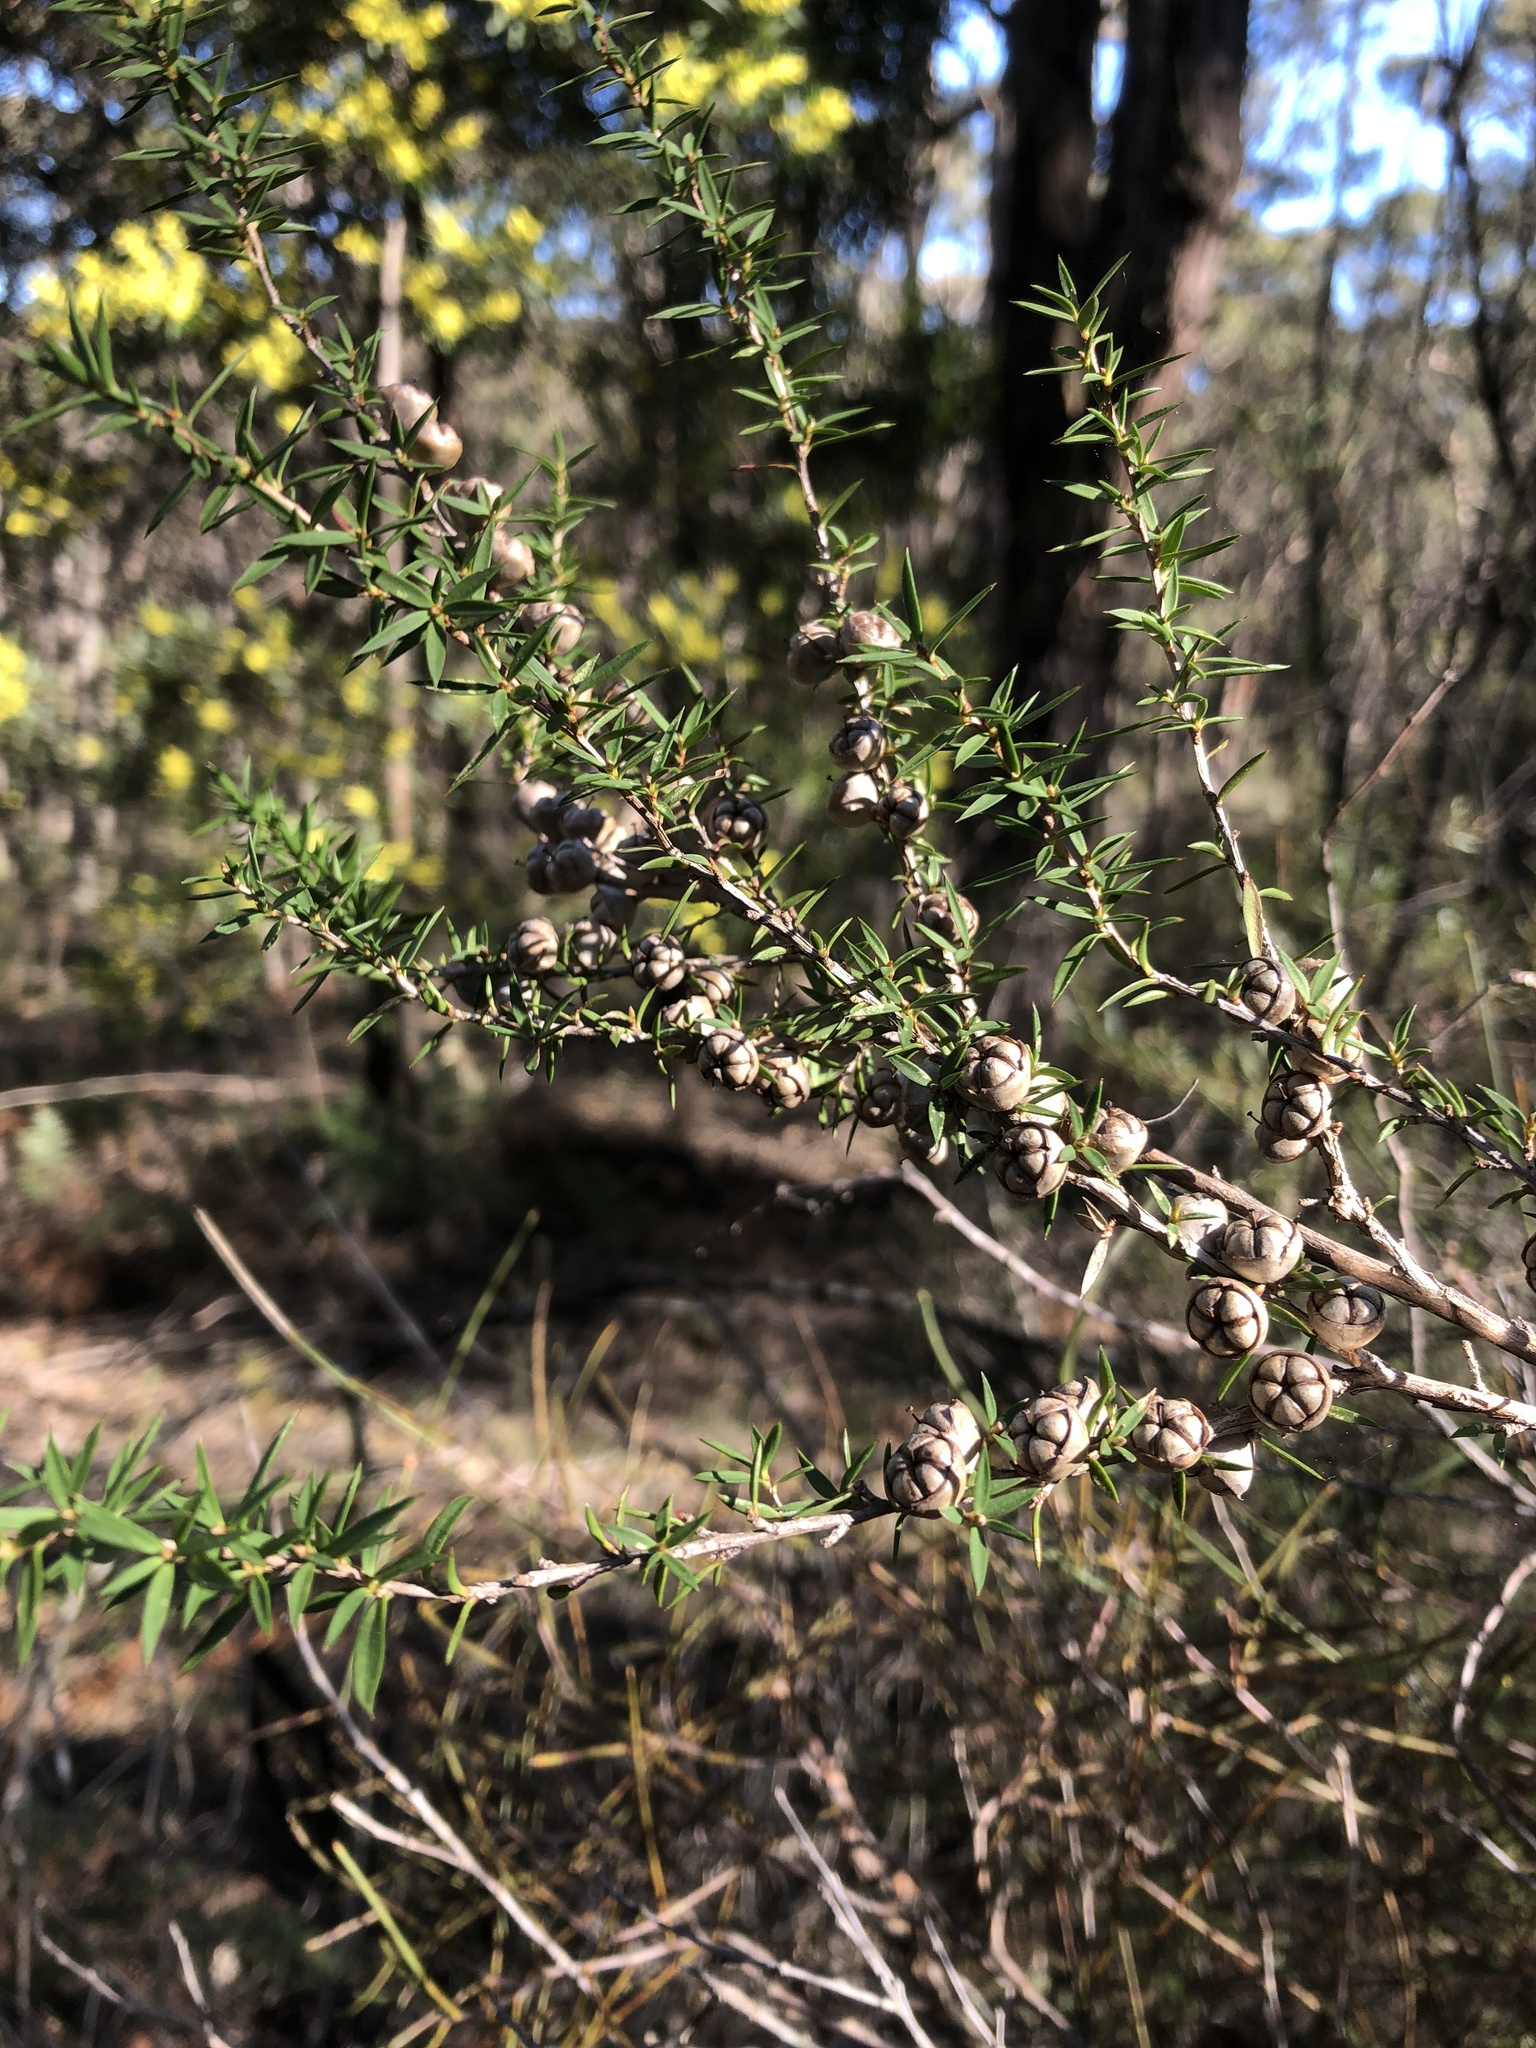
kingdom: Plantae
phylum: Tracheophyta
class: Magnoliopsida
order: Myrtales
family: Myrtaceae
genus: Leptospermum
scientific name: Leptospermum continentale
